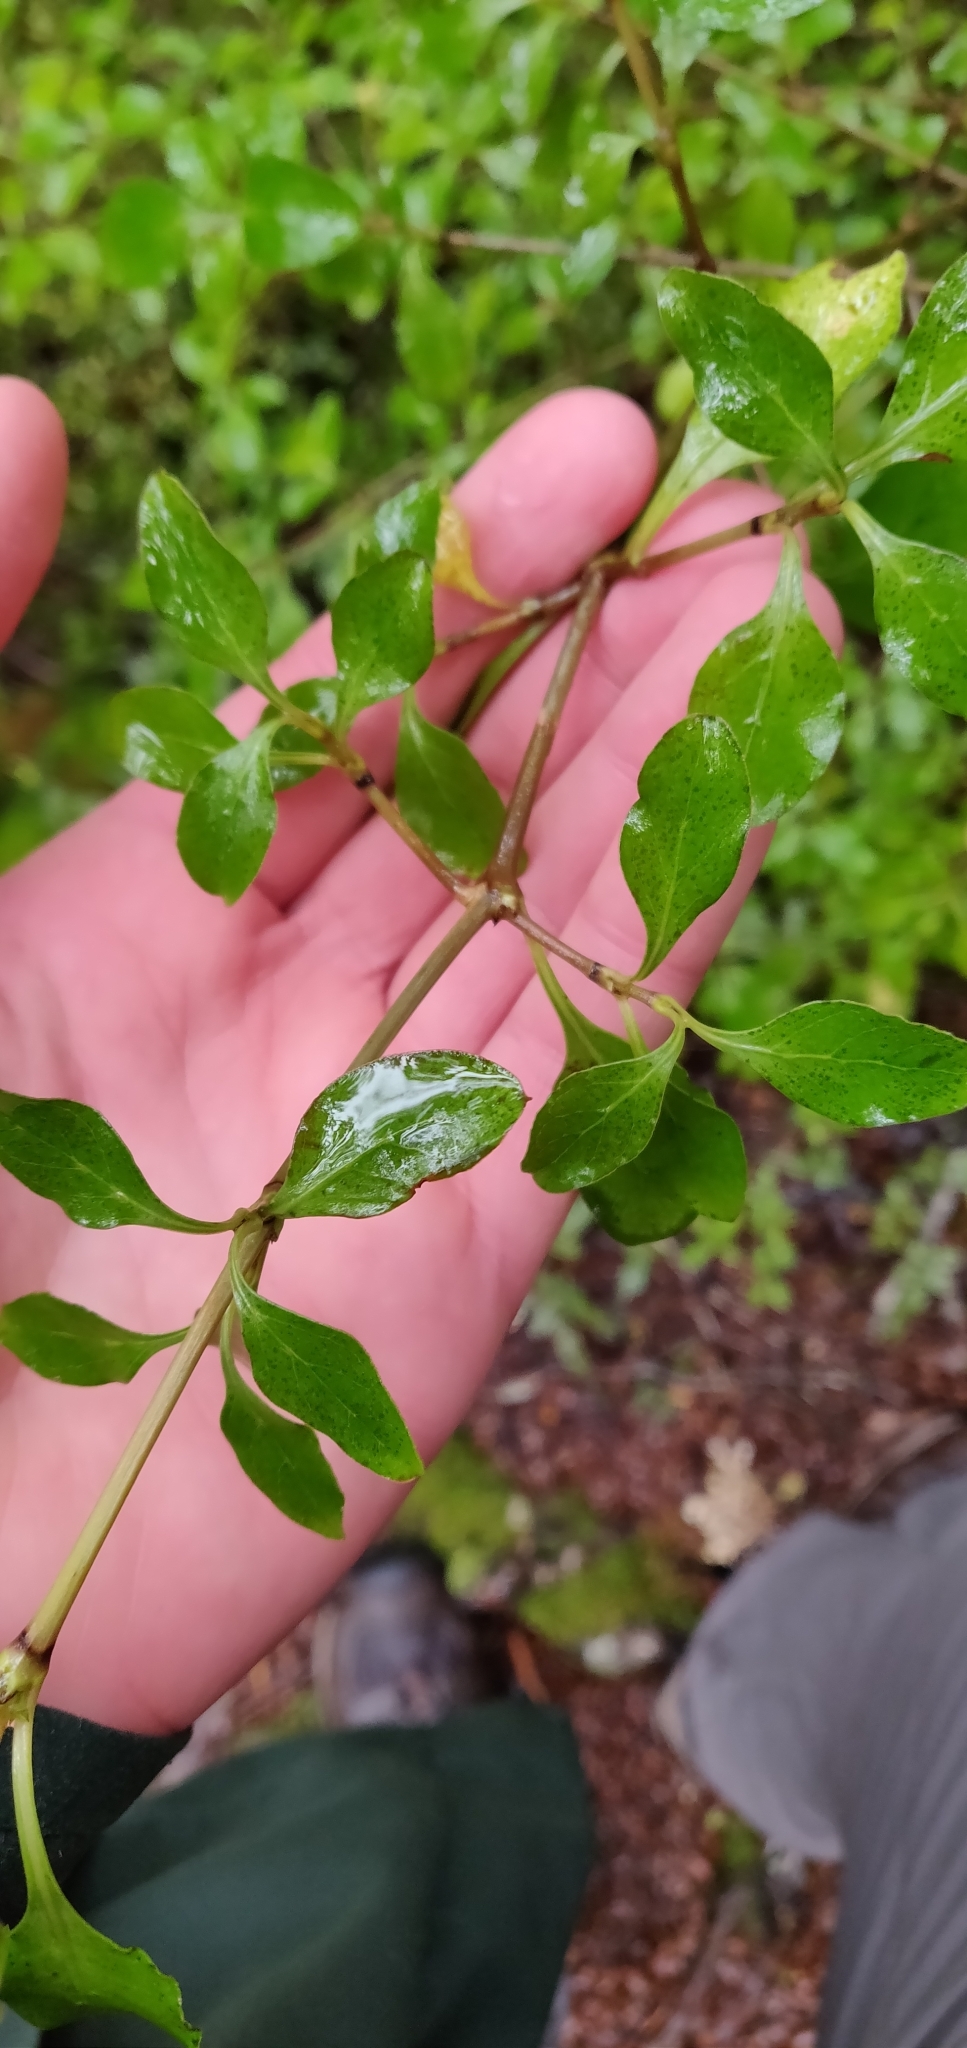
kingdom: Plantae
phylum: Tracheophyta
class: Magnoliopsida
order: Gentianales
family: Rubiaceae
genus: Coprosma
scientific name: Coprosma foetidissima
